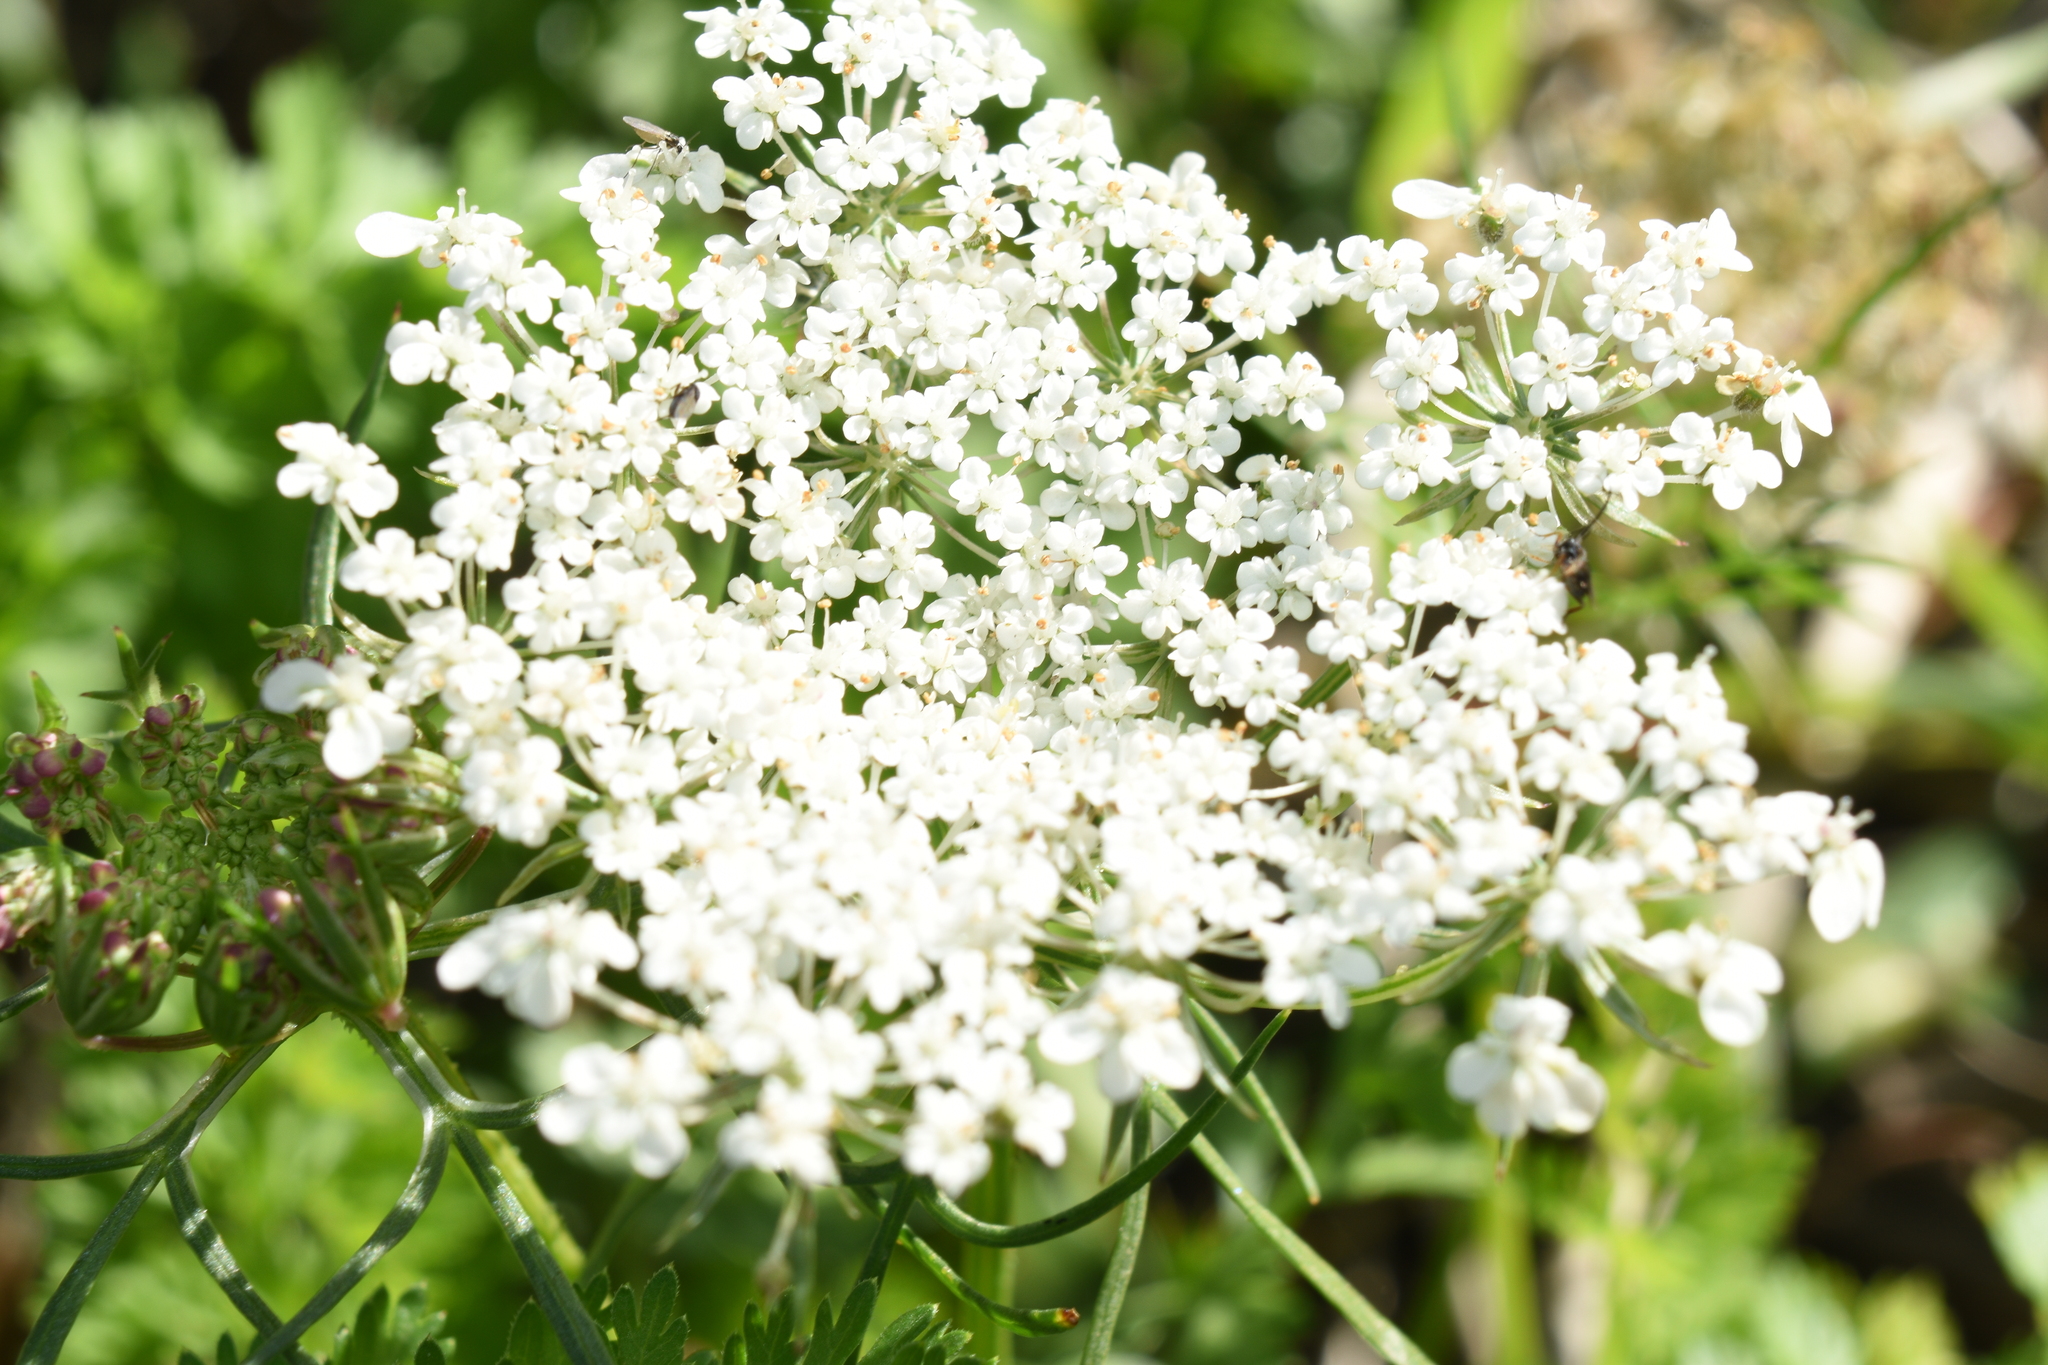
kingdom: Plantae
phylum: Tracheophyta
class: Magnoliopsida
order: Apiales
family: Apiaceae
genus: Daucus
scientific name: Daucus carota
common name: Wild carrot
